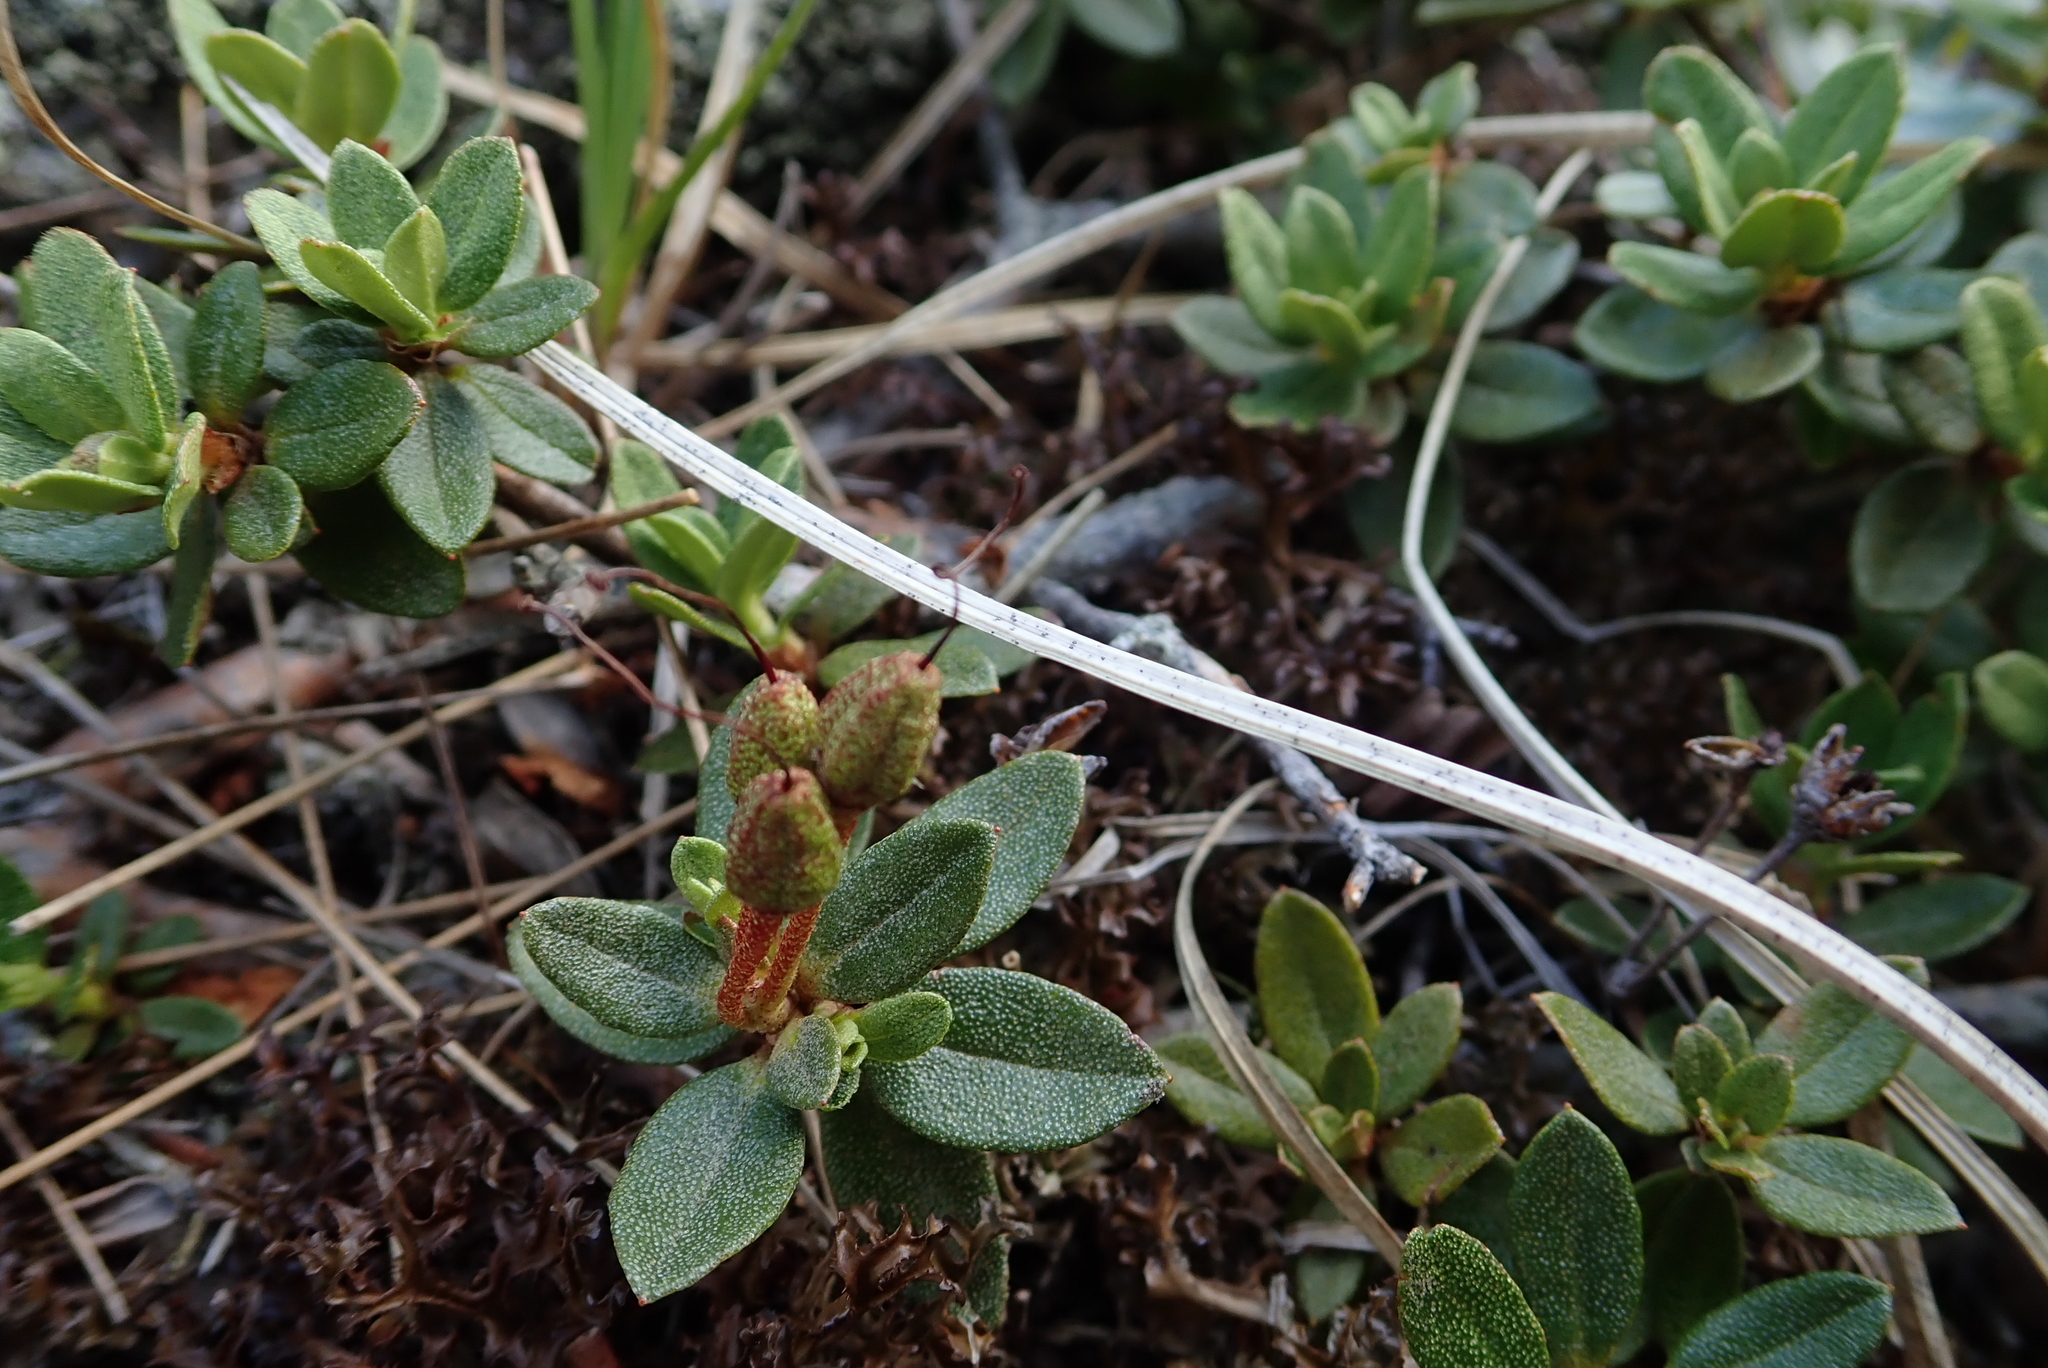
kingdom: Plantae
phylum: Tracheophyta
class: Magnoliopsida
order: Ericales
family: Ericaceae
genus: Rhododendron
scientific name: Rhododendron lapponicum
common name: Lapland rhododendron
